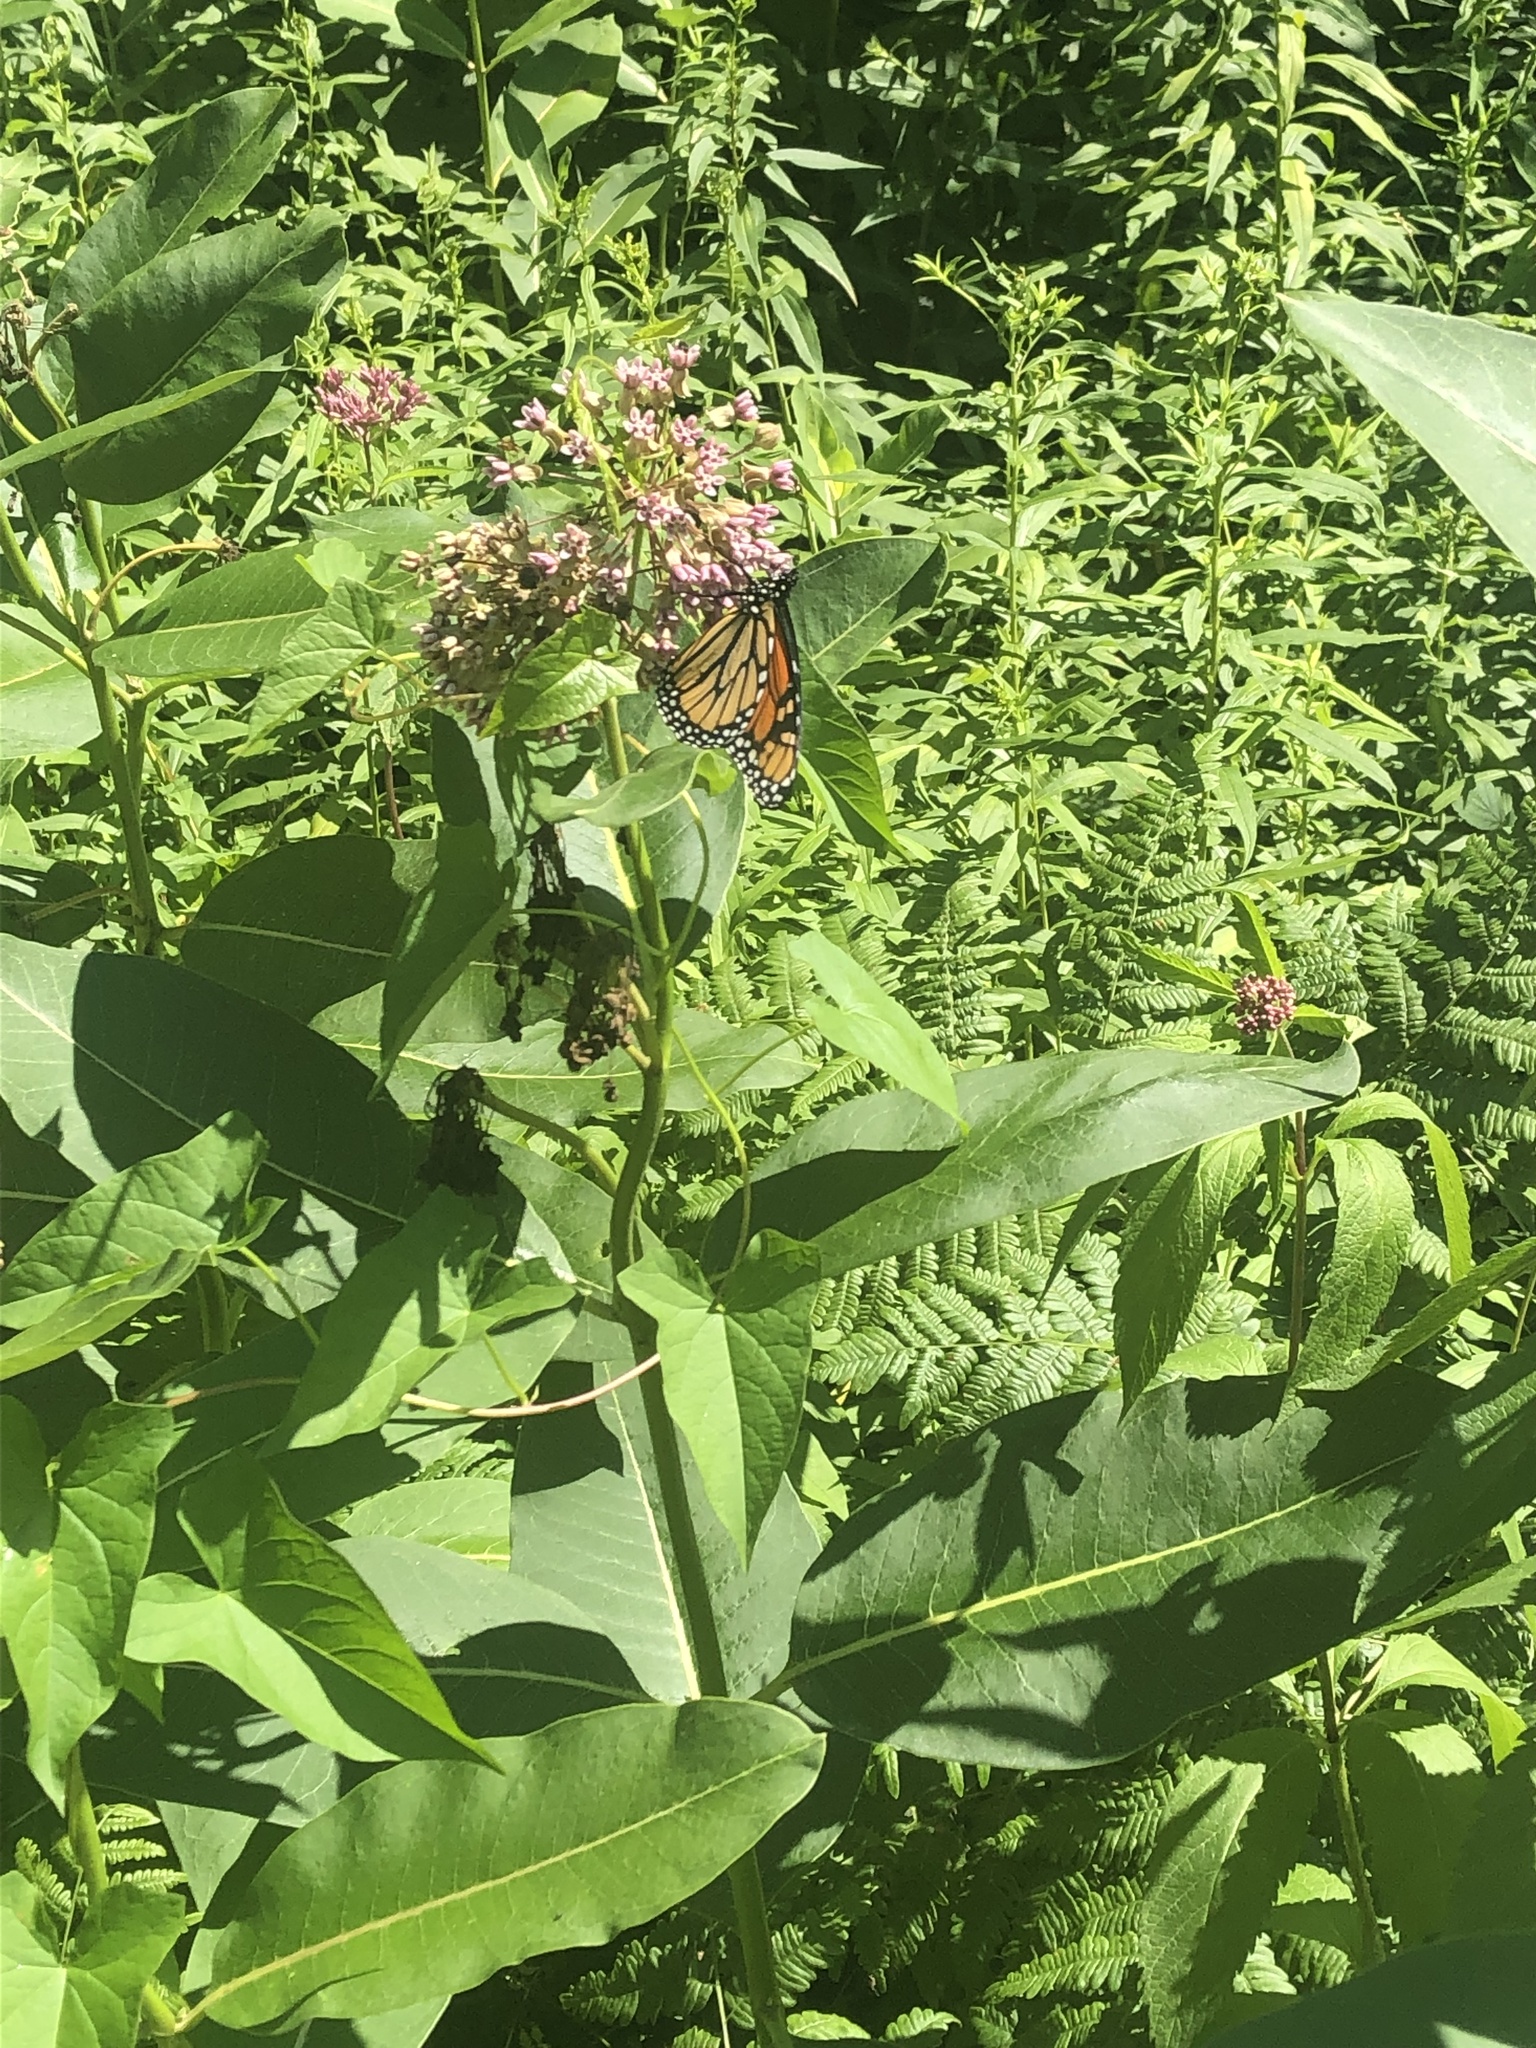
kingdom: Animalia
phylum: Arthropoda
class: Insecta
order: Lepidoptera
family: Nymphalidae
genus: Danaus
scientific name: Danaus plexippus
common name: Monarch
